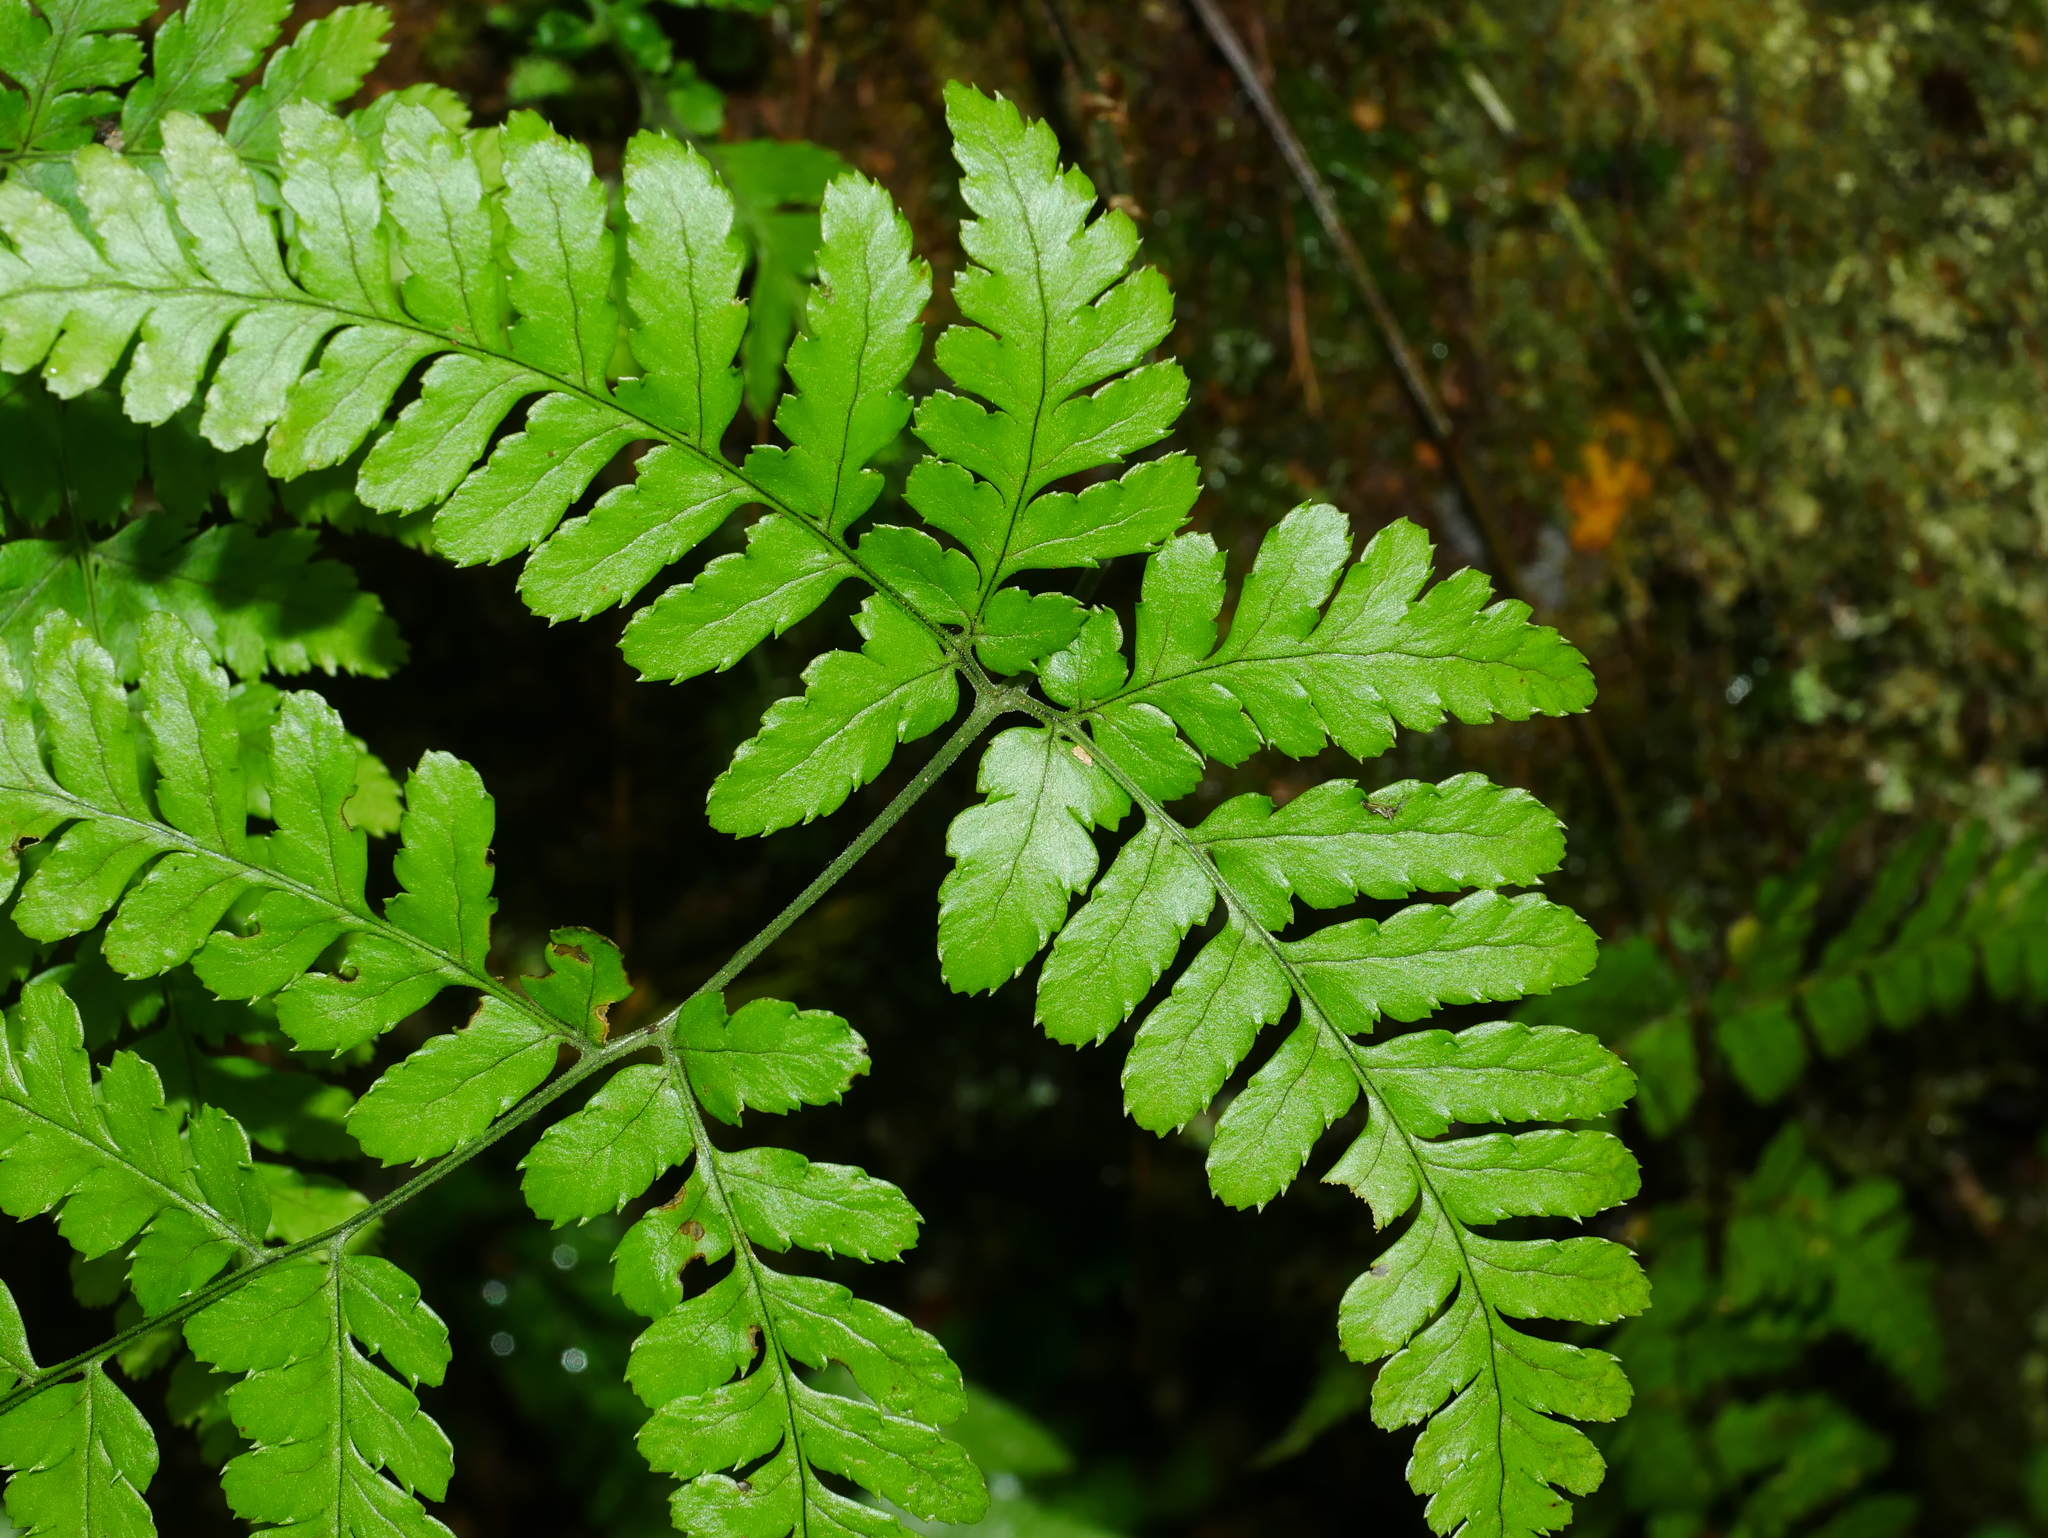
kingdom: Plantae
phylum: Tracheophyta
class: Polypodiopsida
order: Polypodiales
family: Dryopteridaceae
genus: Dryopteris
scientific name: Dryopteris melanocarpa
